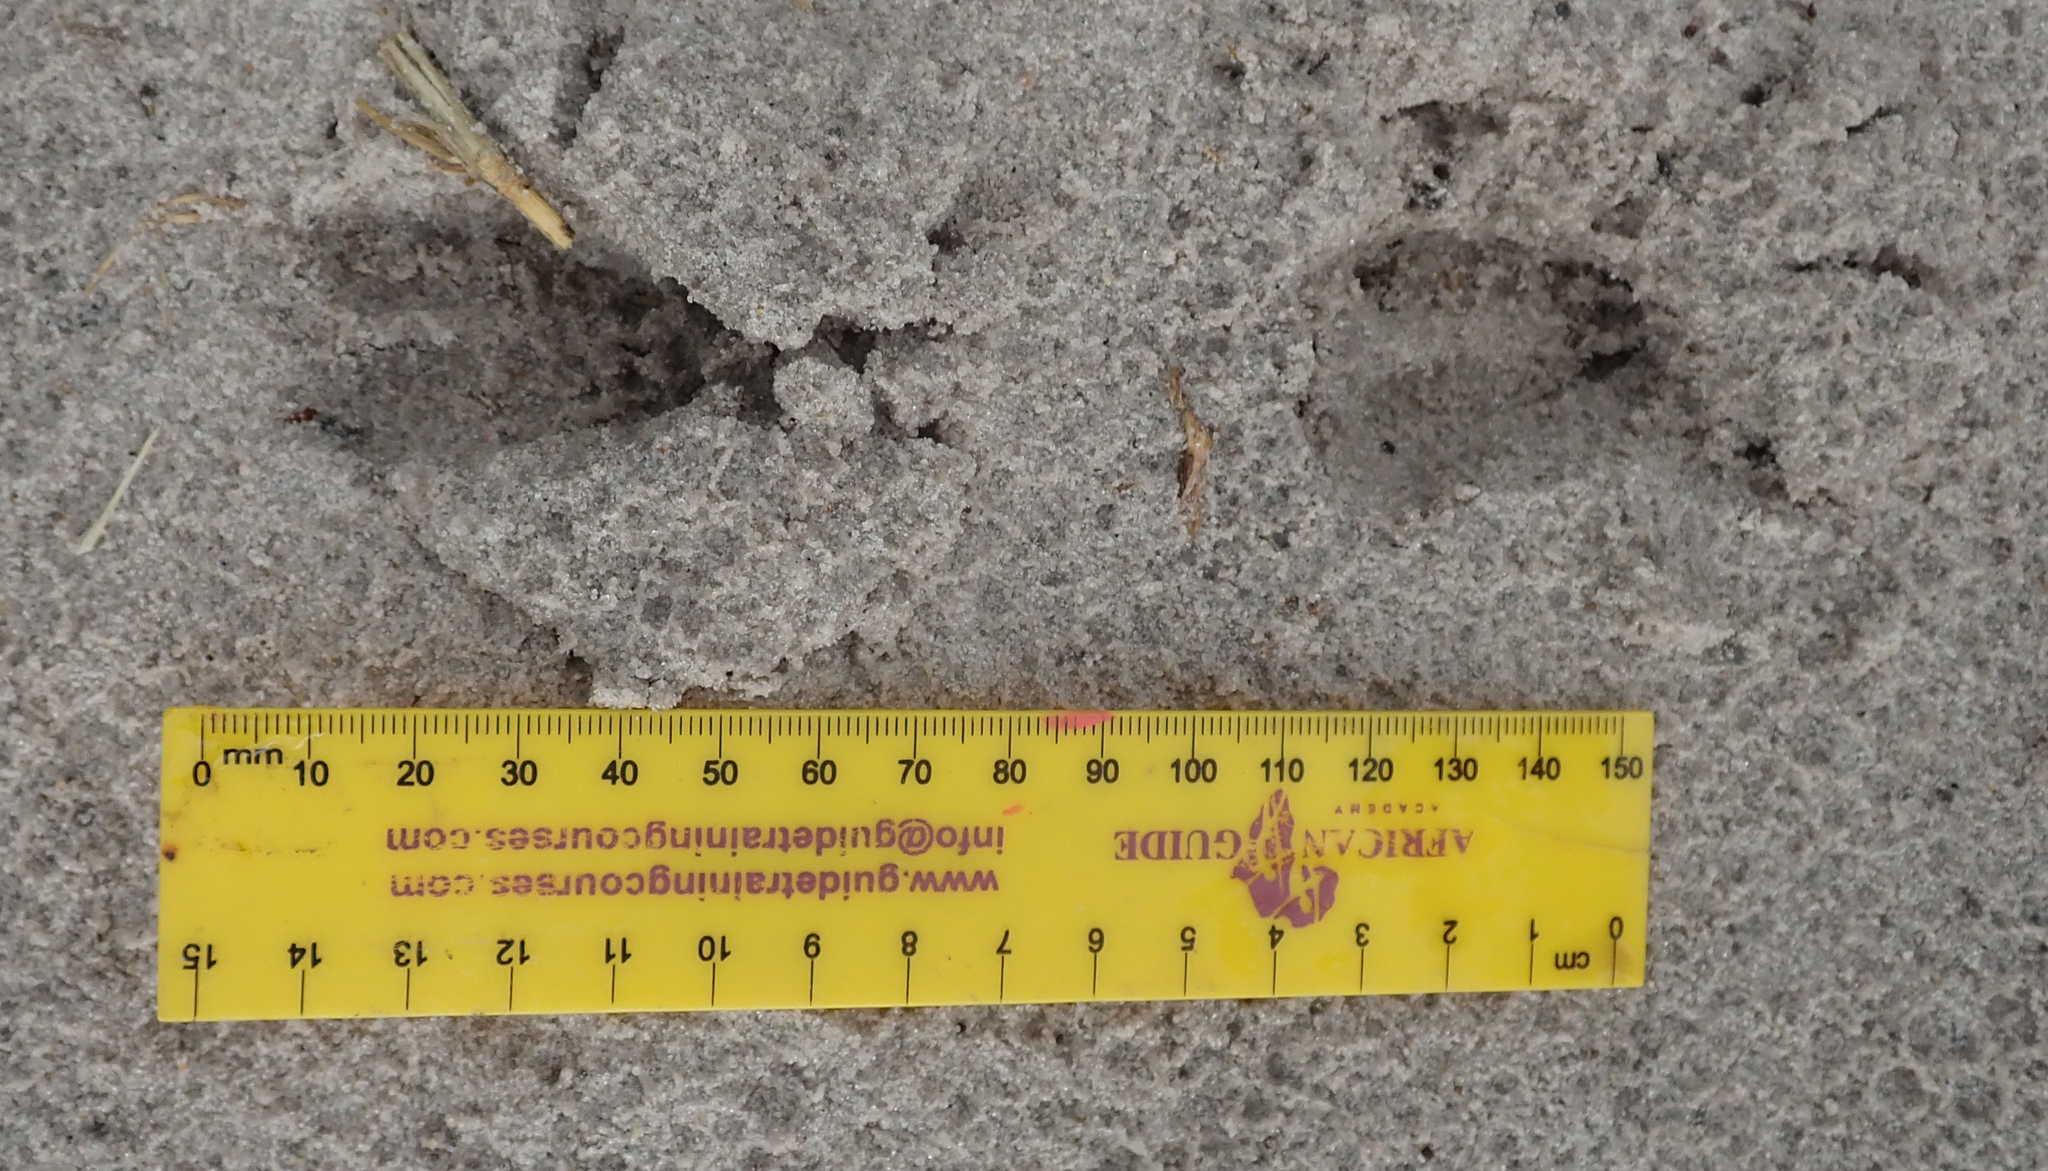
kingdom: Animalia
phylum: Chordata
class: Mammalia
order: Artiodactyla
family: Bovidae
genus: Sylvicapra
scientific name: Sylvicapra grimmia
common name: Bush duiker
